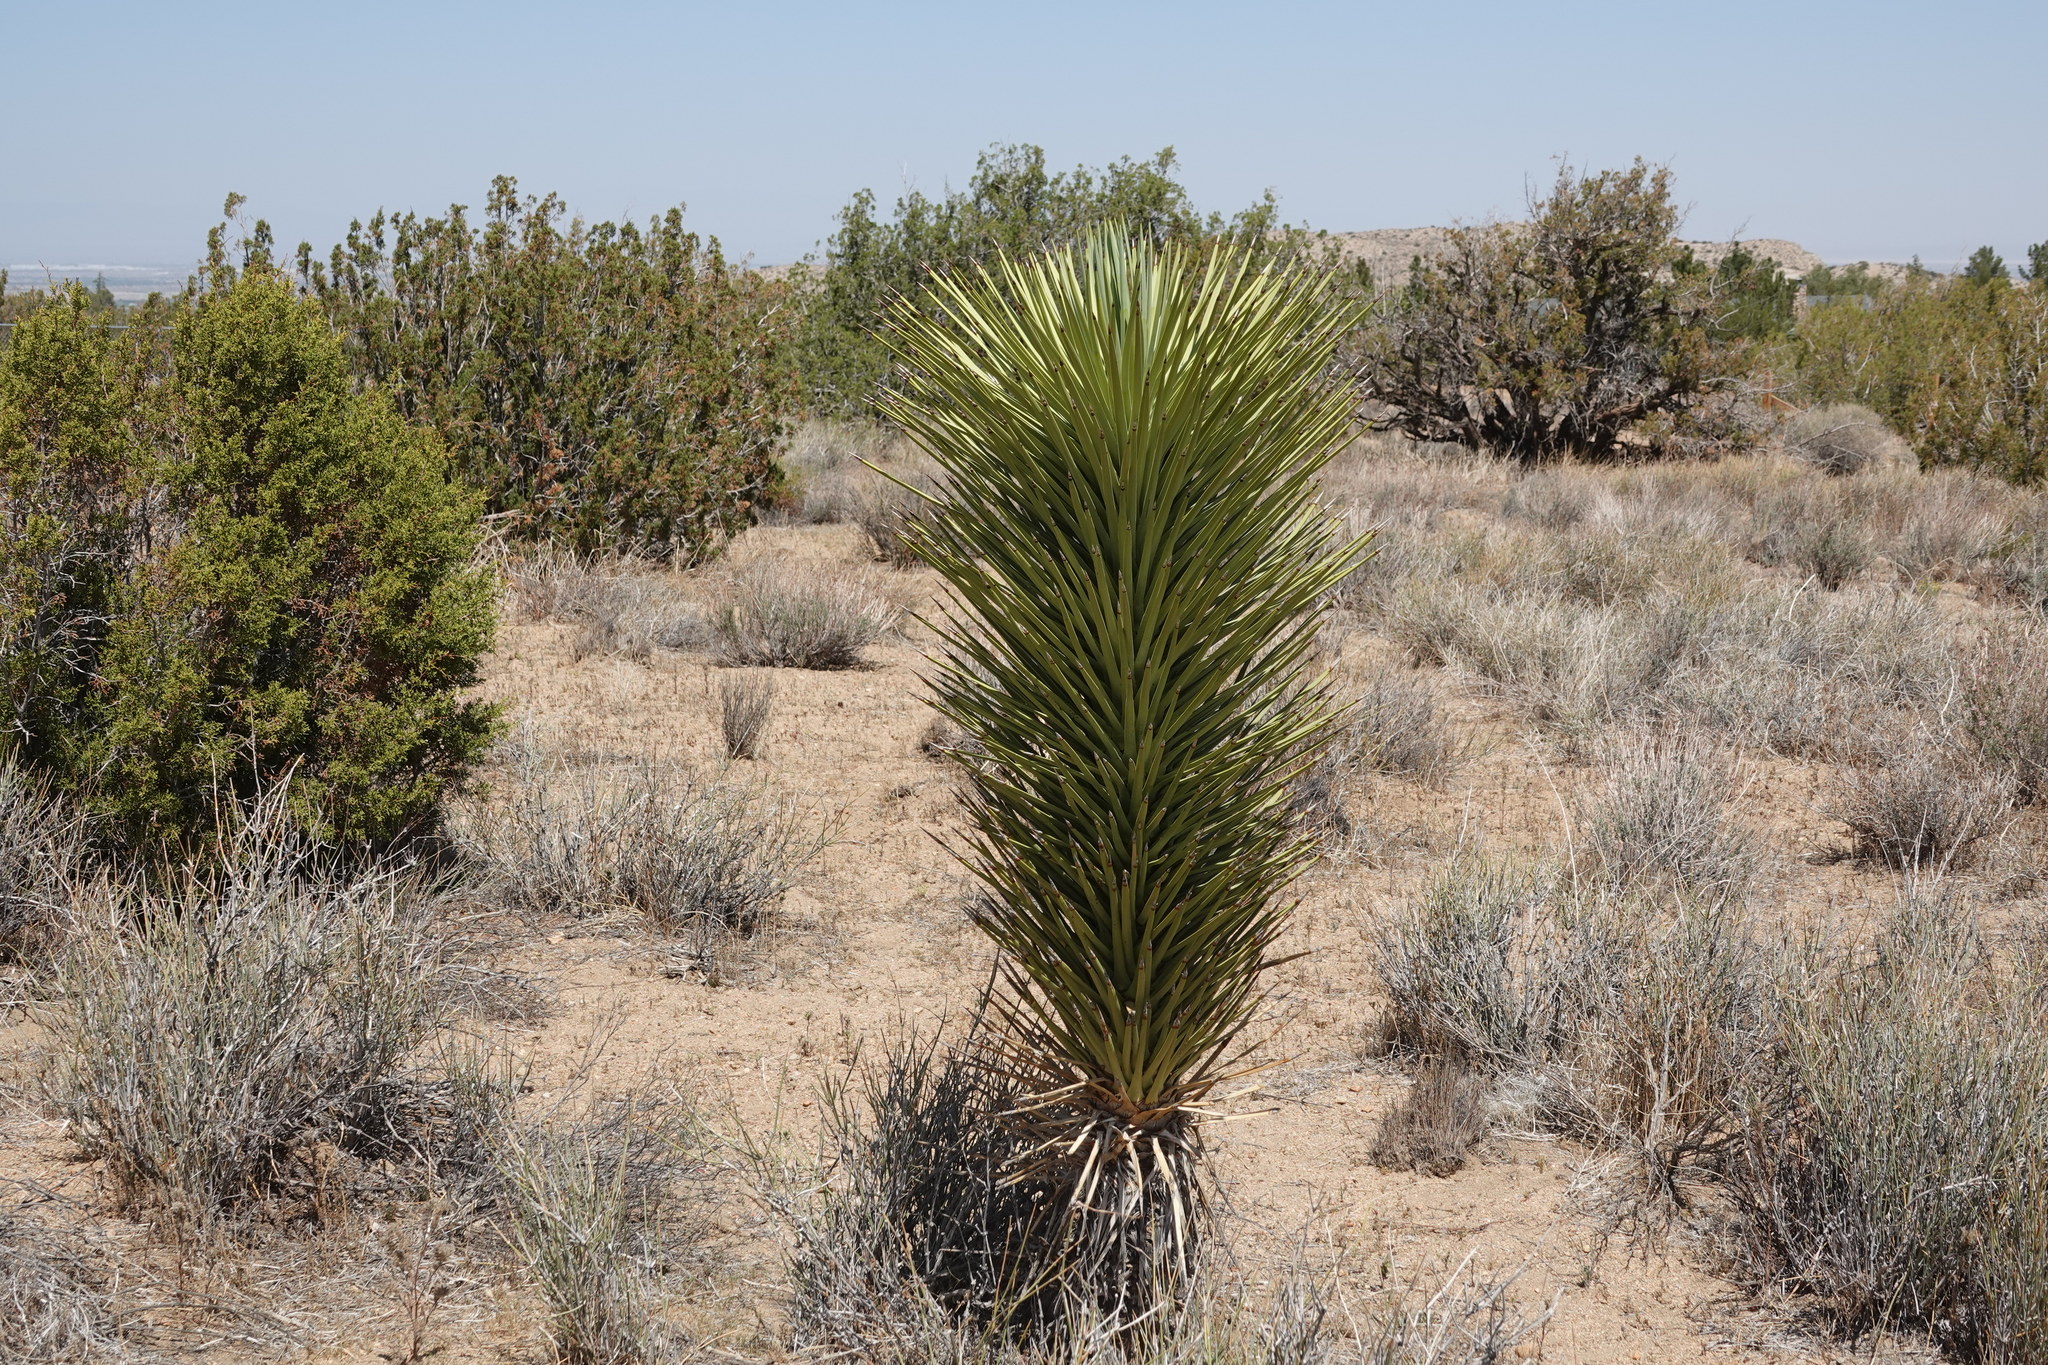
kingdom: Plantae
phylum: Tracheophyta
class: Liliopsida
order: Asparagales
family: Asparagaceae
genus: Yucca
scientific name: Yucca brevifolia
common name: Joshua tree
